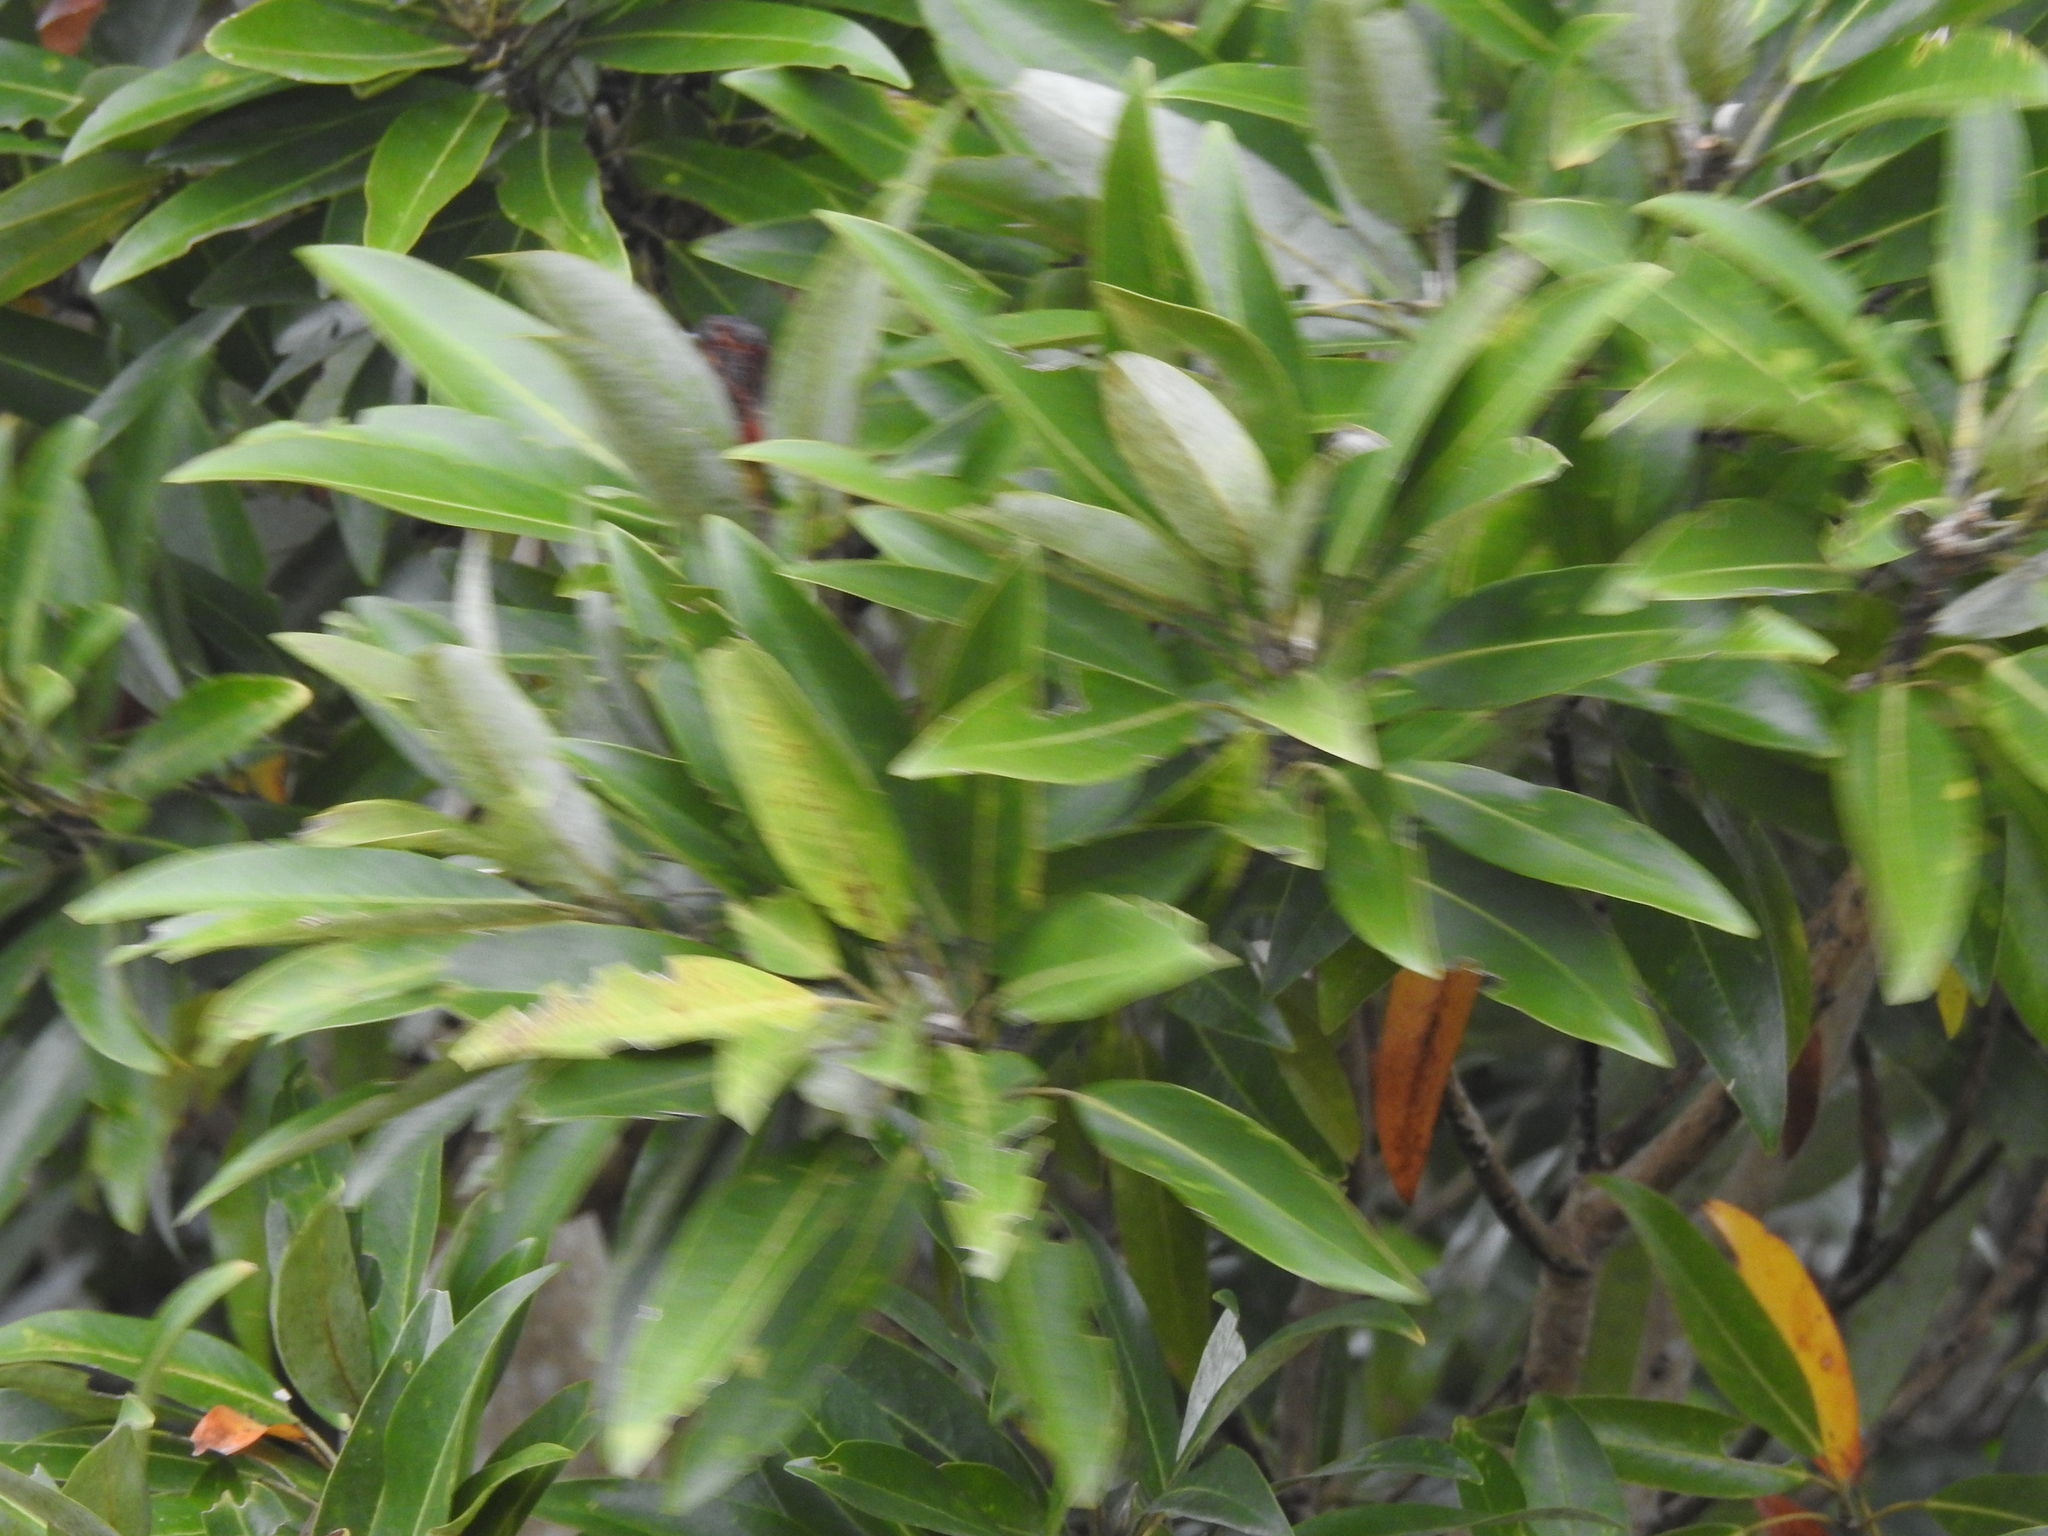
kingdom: Plantae
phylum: Tracheophyta
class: Magnoliopsida
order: Magnoliales
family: Magnoliaceae
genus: Magnolia
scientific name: Magnolia virginiana
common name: Swamp bay
